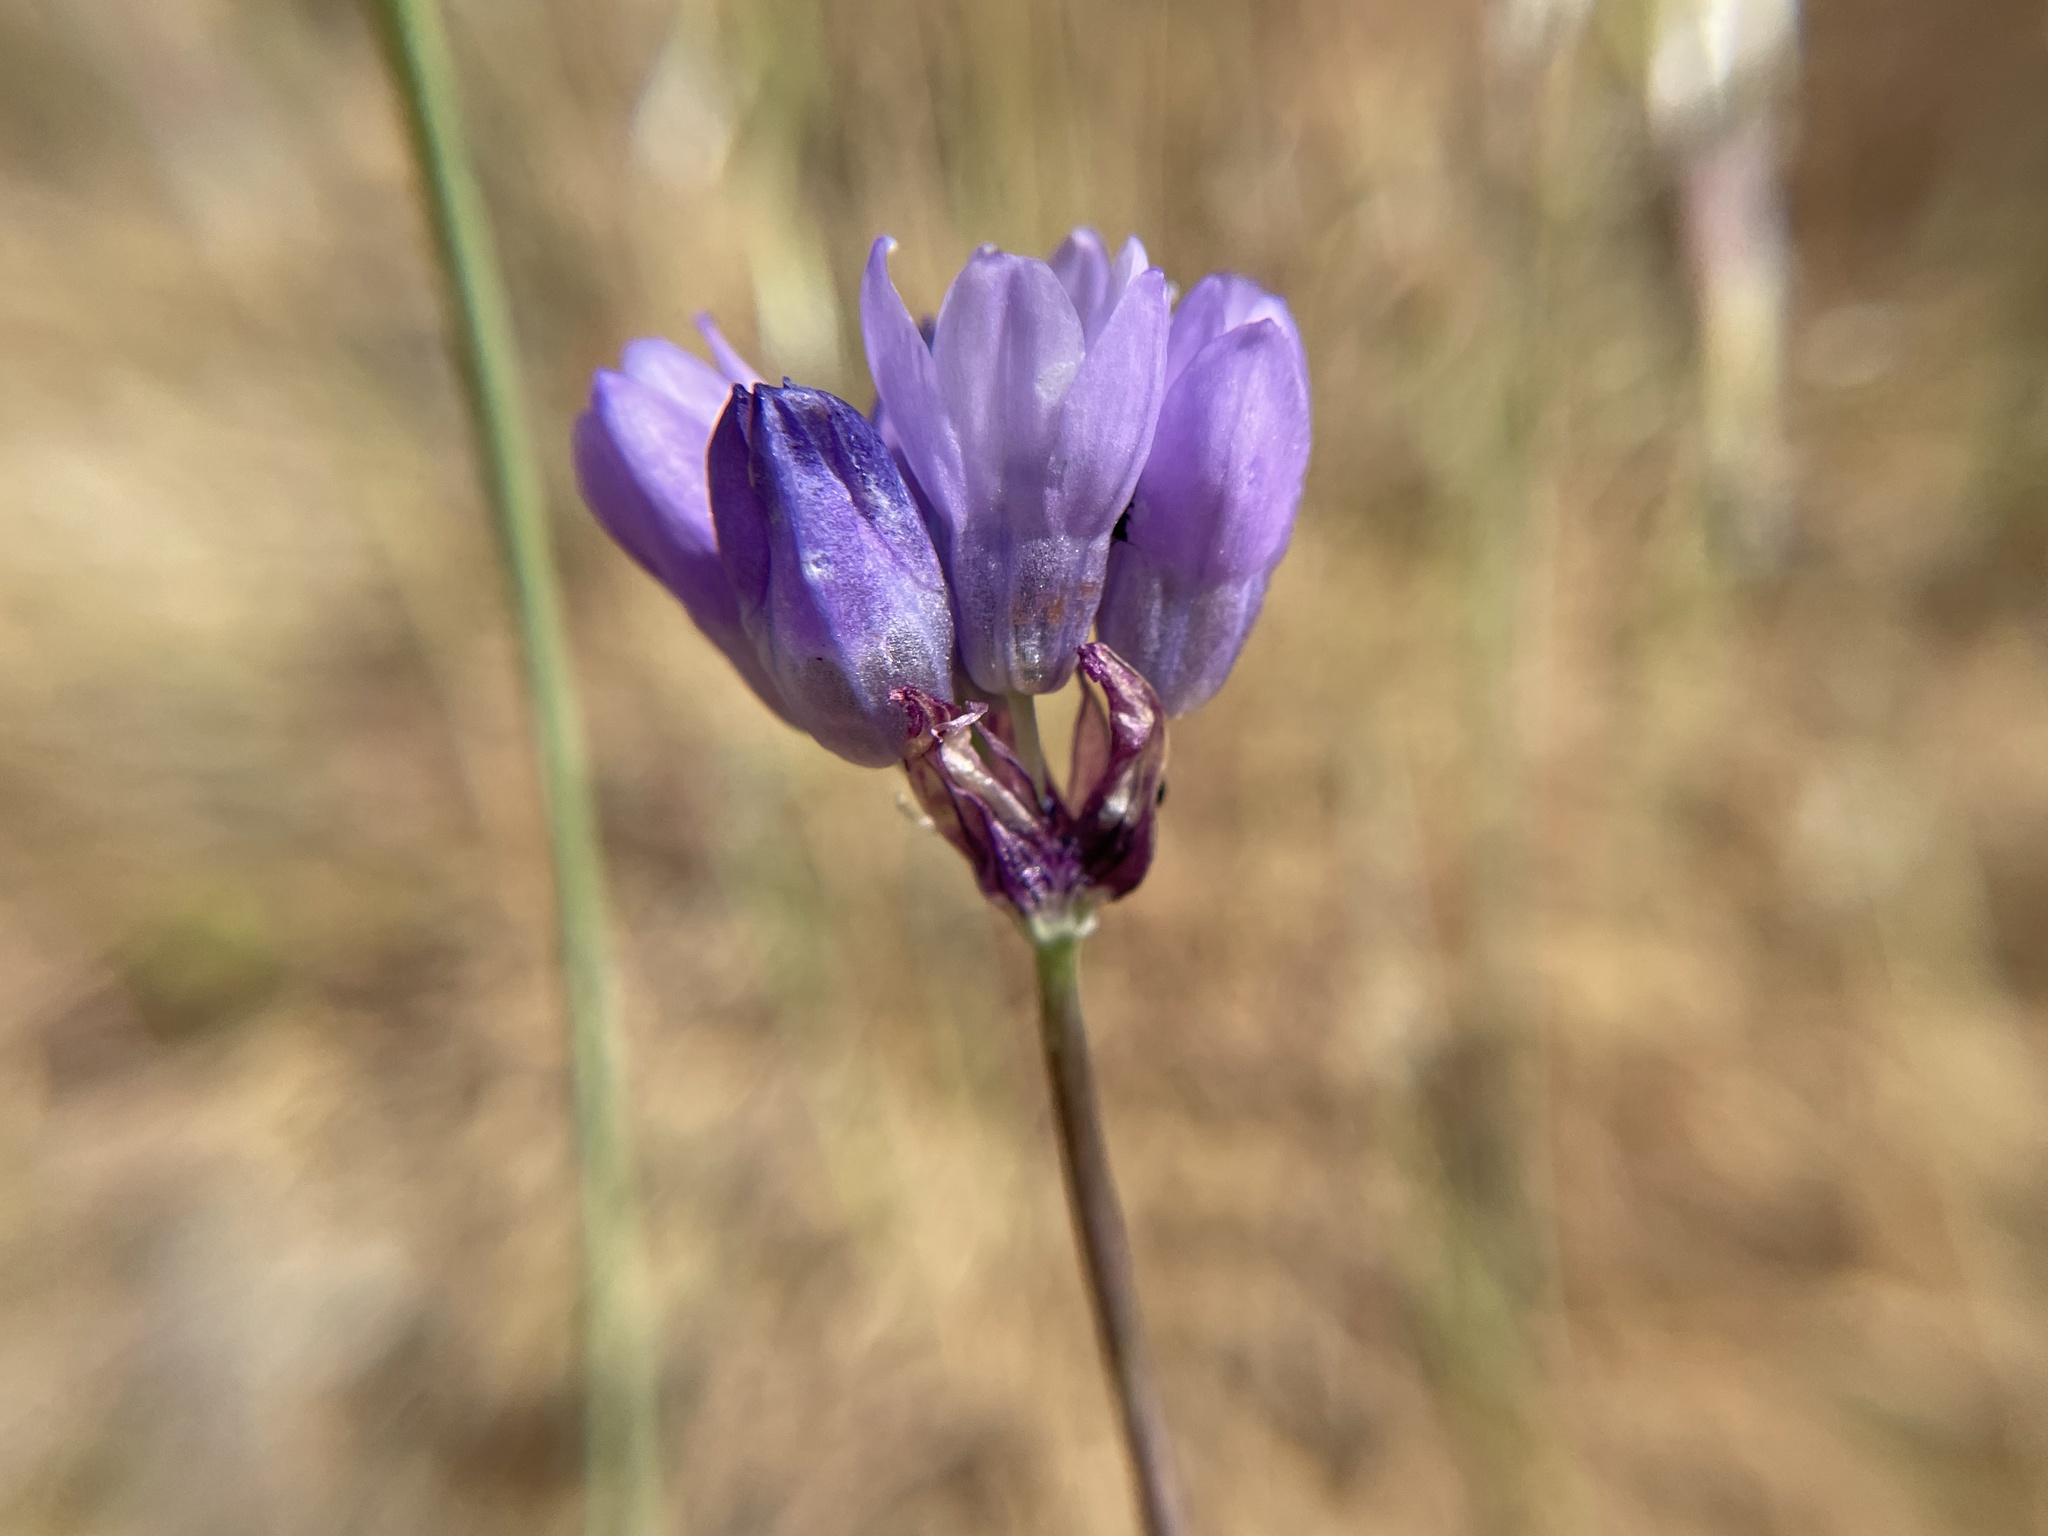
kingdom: Plantae
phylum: Tracheophyta
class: Liliopsida
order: Asparagales
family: Asparagaceae
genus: Dipterostemon
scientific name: Dipterostemon capitatus
